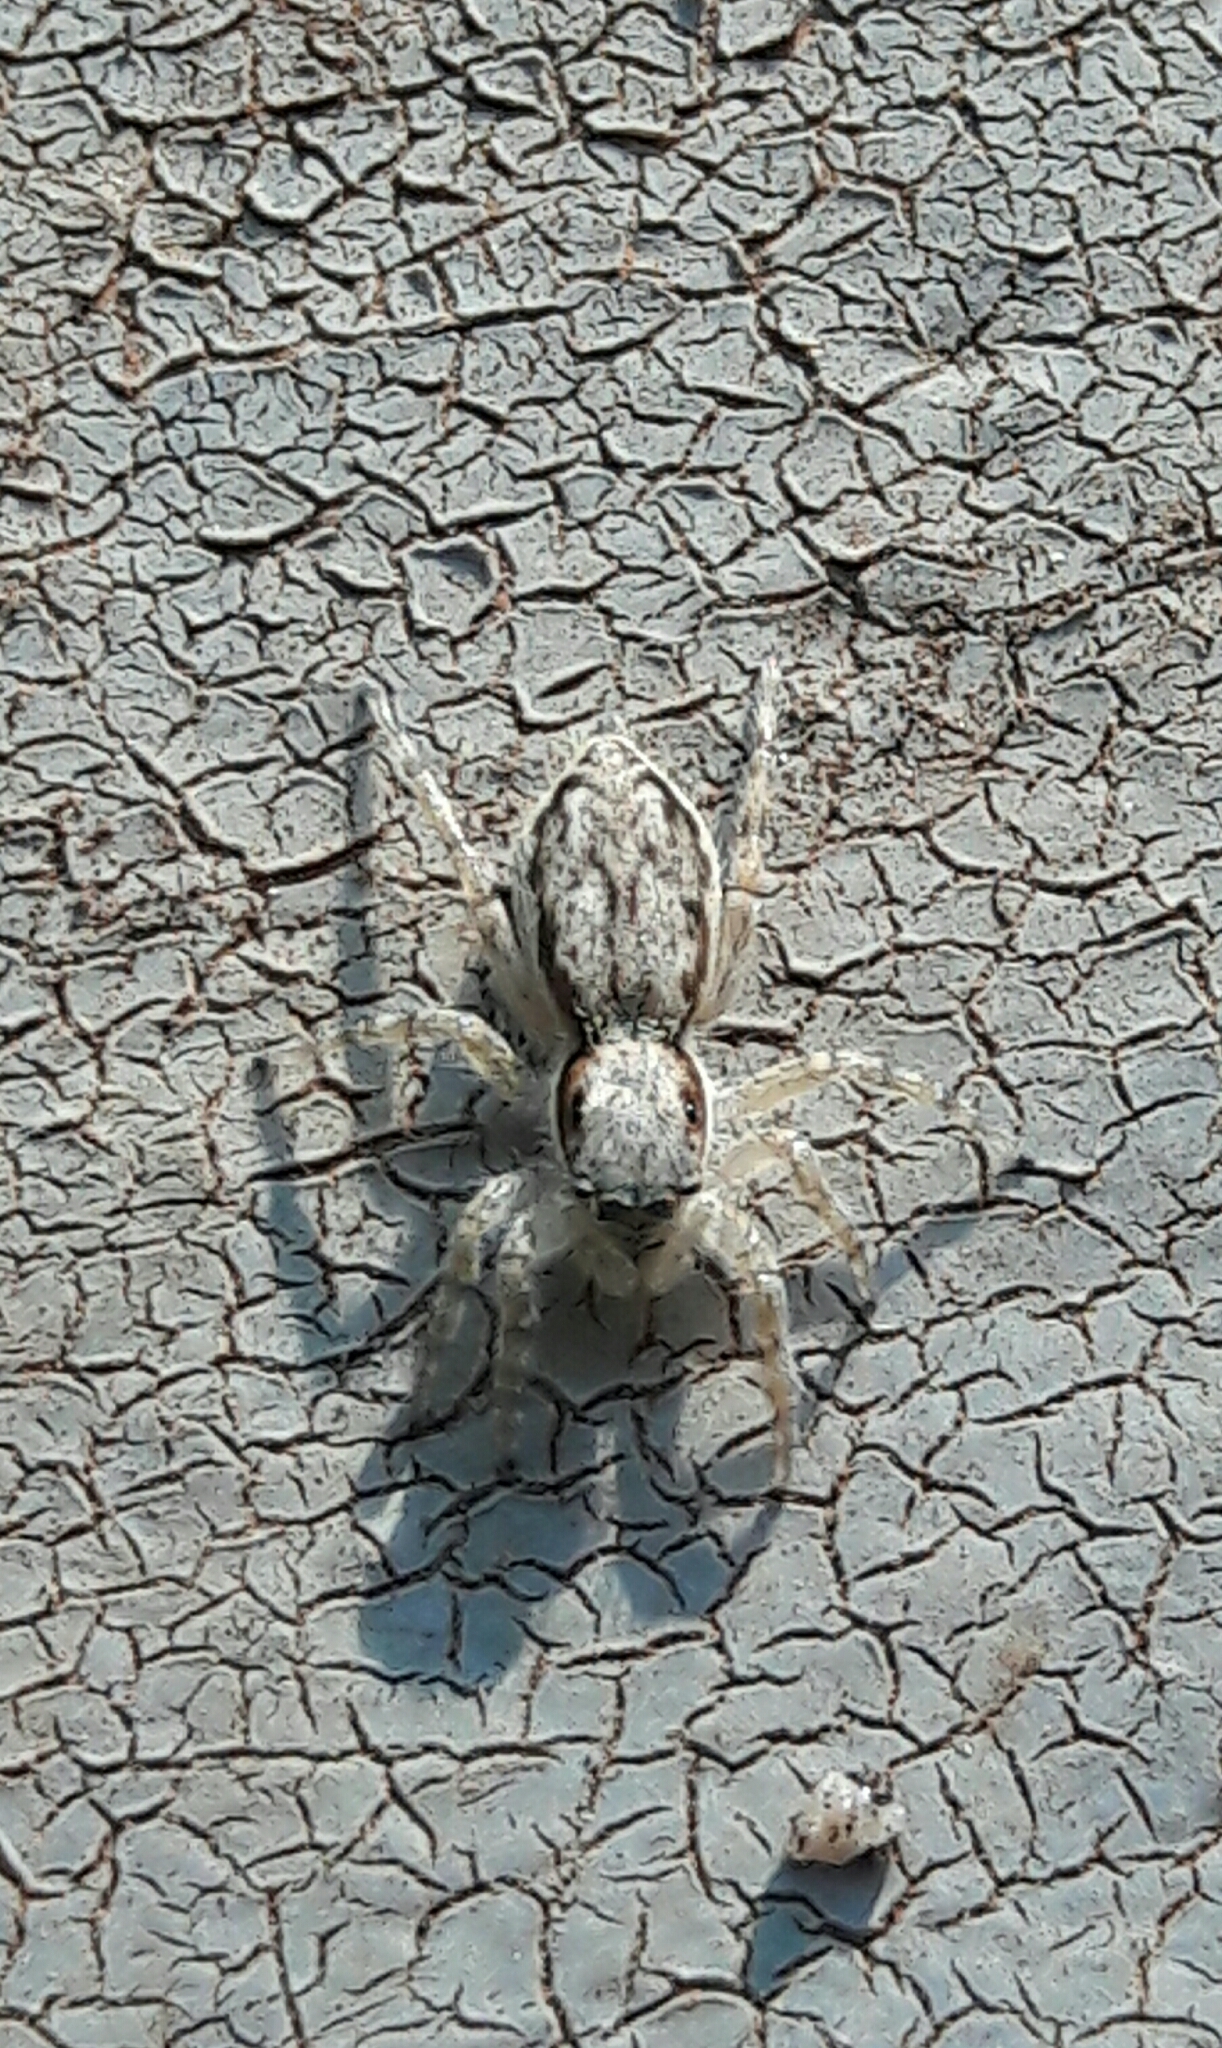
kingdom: Animalia
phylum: Arthropoda
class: Arachnida
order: Araneae
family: Salticidae
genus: Menemerus
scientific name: Menemerus bivittatus
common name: Gray wall jumper
